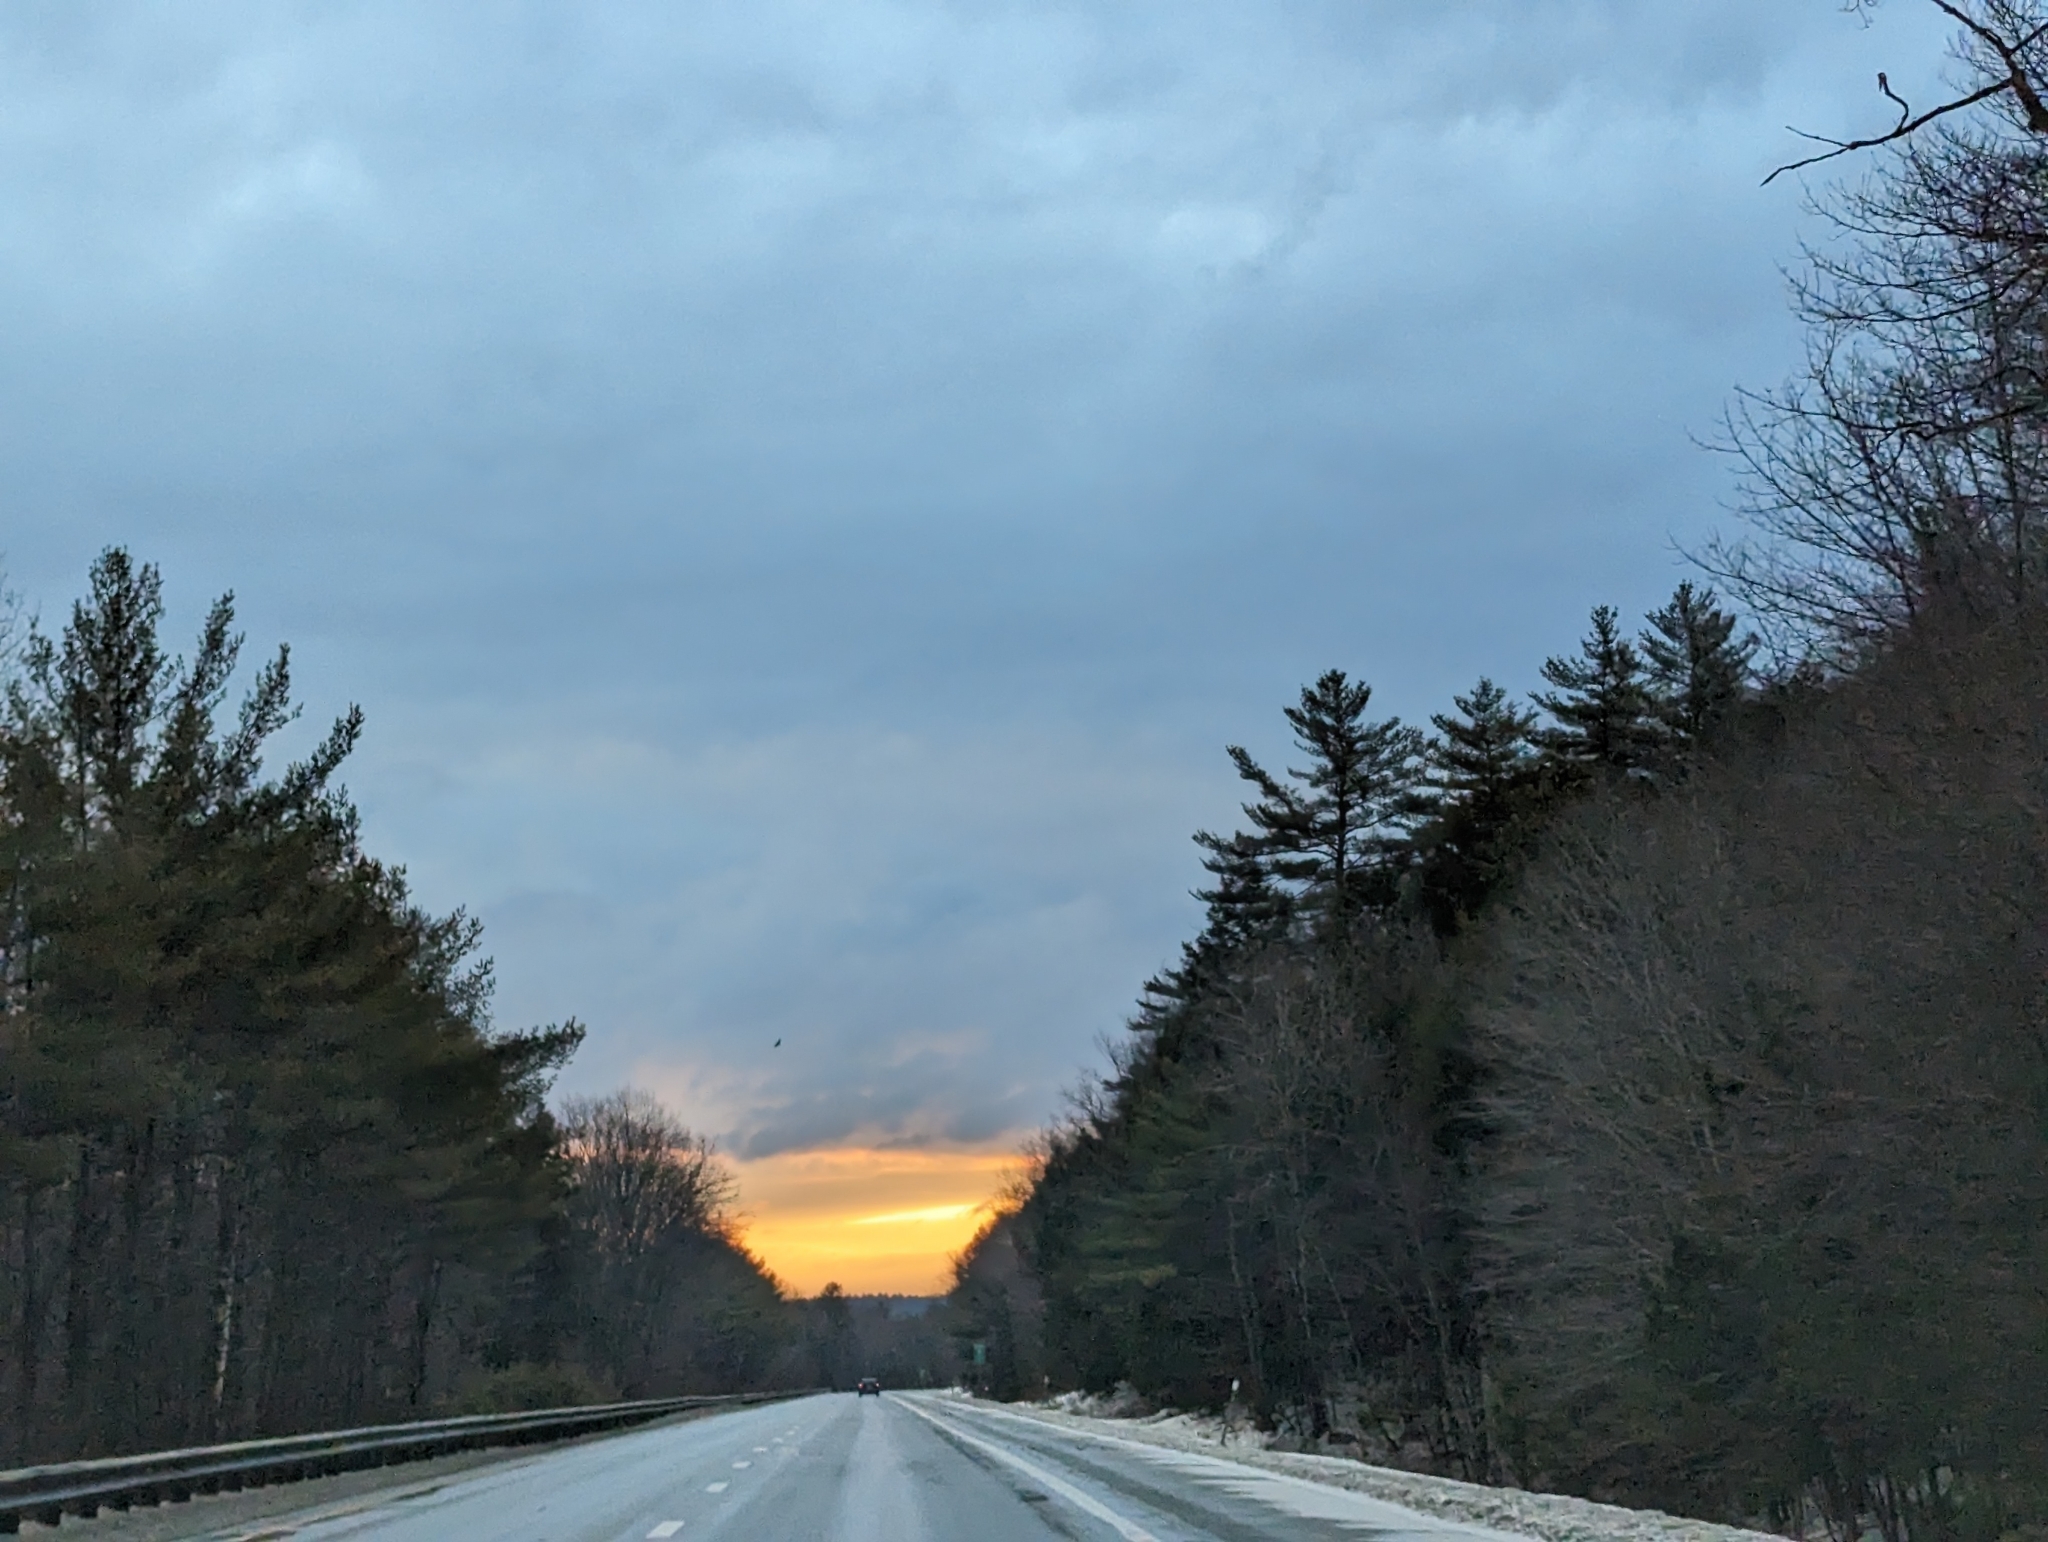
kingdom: Plantae
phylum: Tracheophyta
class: Pinopsida
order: Pinales
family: Pinaceae
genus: Pinus
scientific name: Pinus strobus
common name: Weymouth pine
